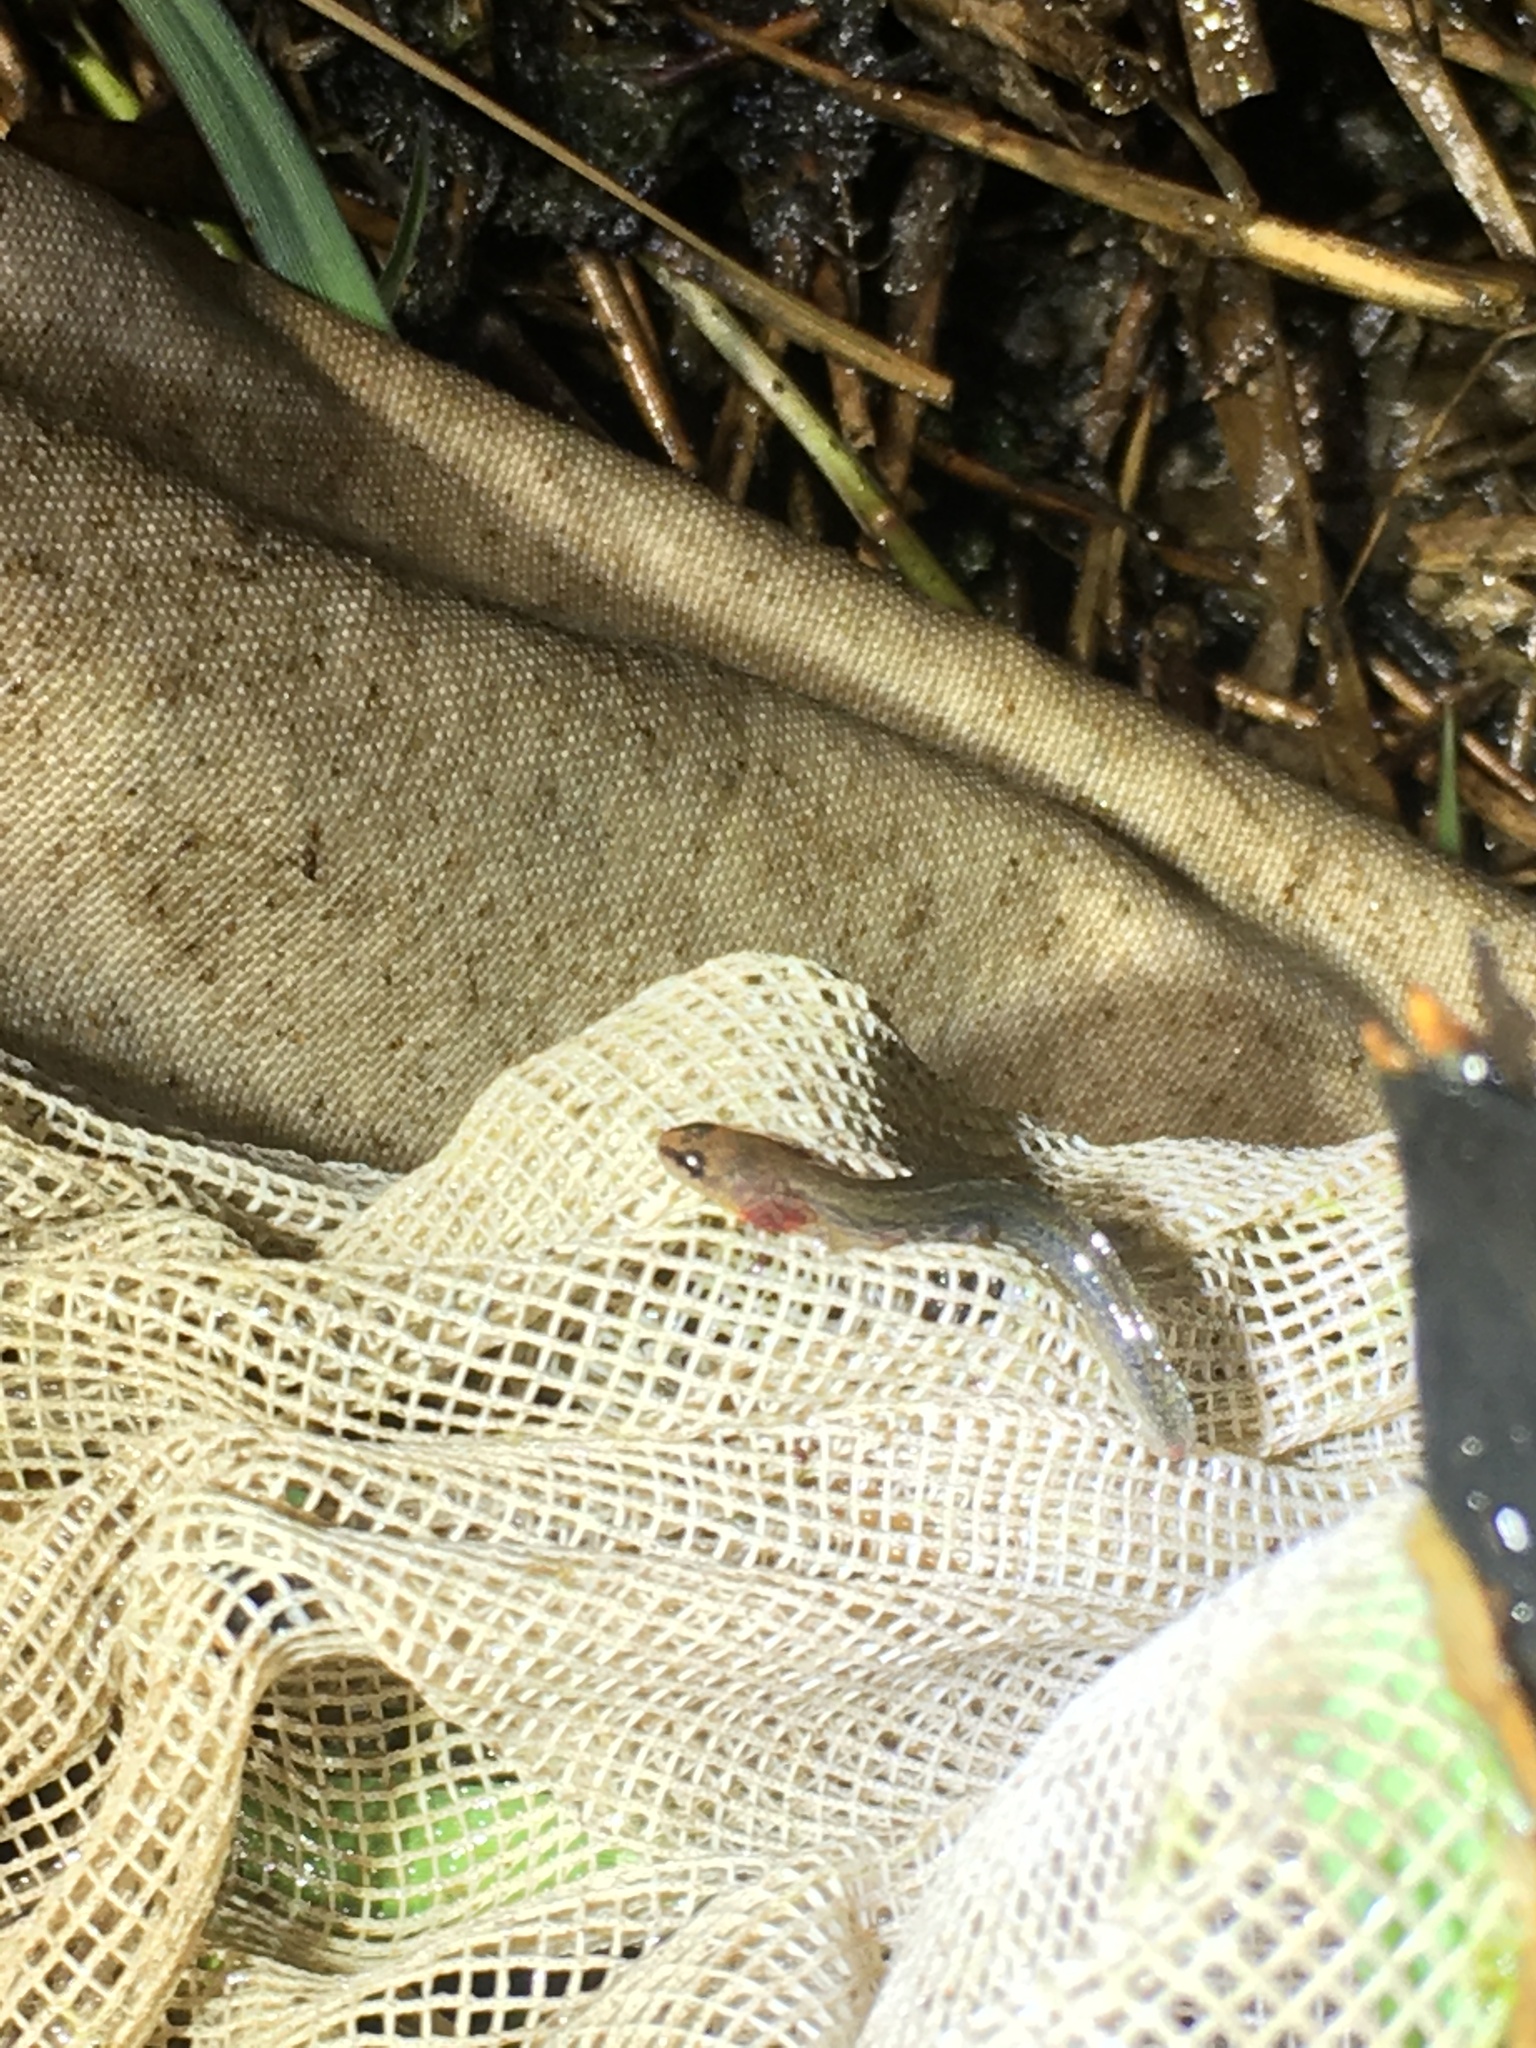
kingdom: Animalia
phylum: Chordata
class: Amphibia
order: Caudata
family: Plethodontidae
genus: Eurycea
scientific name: Eurycea quadridigitata
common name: Dwarf salamander
